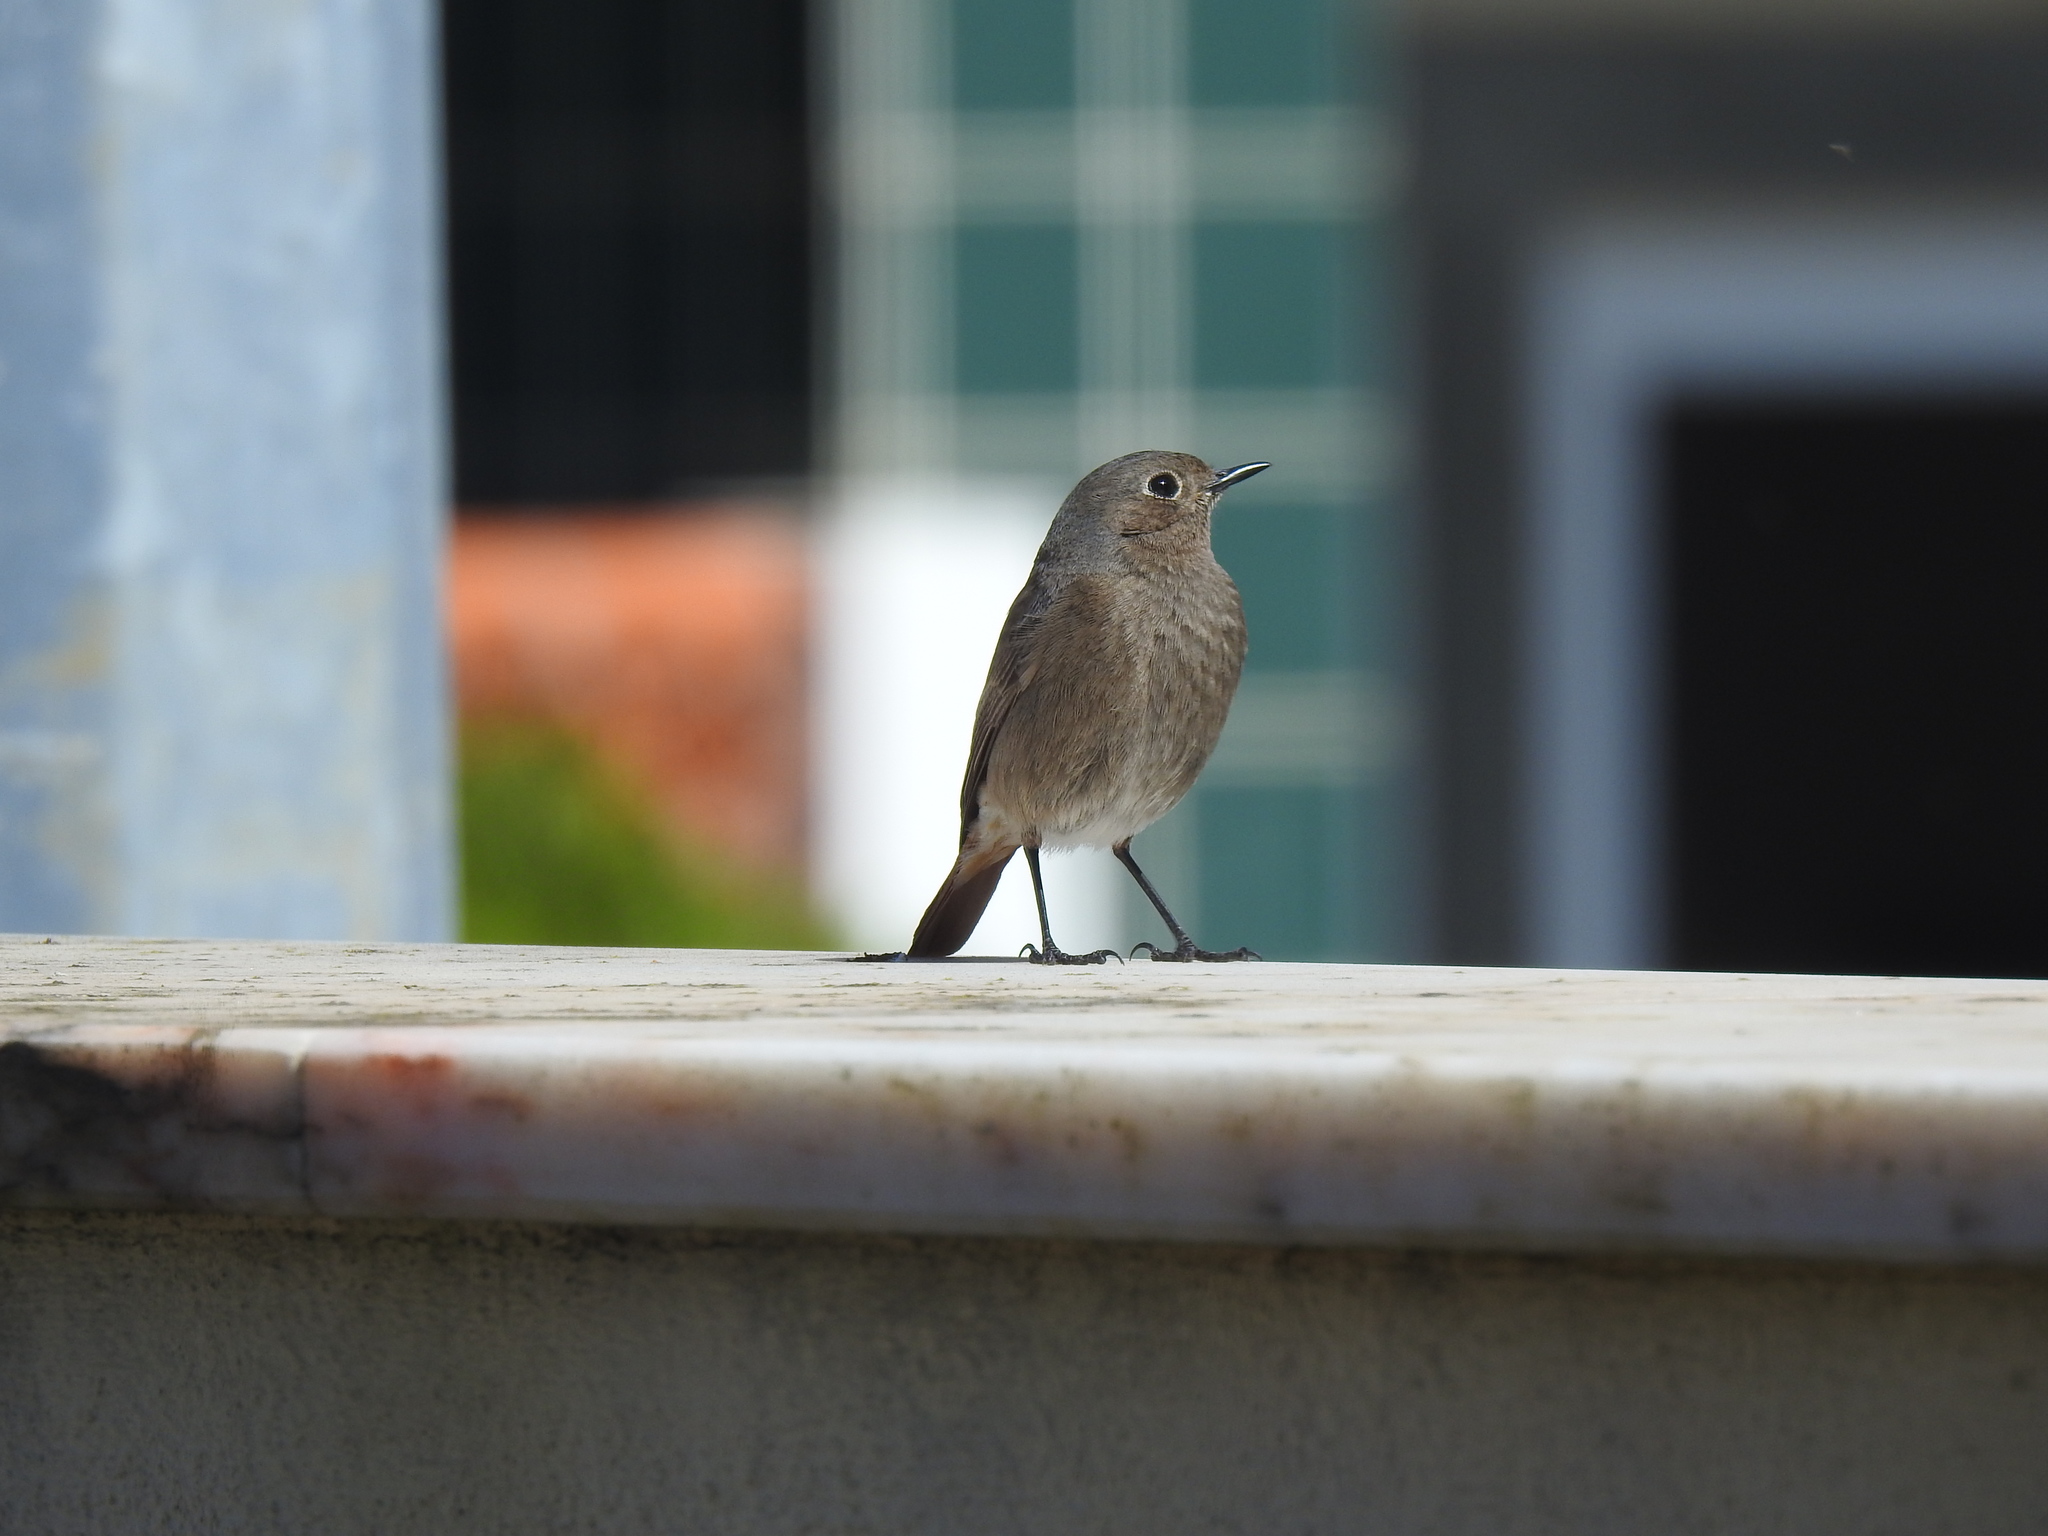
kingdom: Animalia
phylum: Chordata
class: Aves
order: Passeriformes
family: Muscicapidae
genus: Phoenicurus
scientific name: Phoenicurus ochruros
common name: Black redstart
